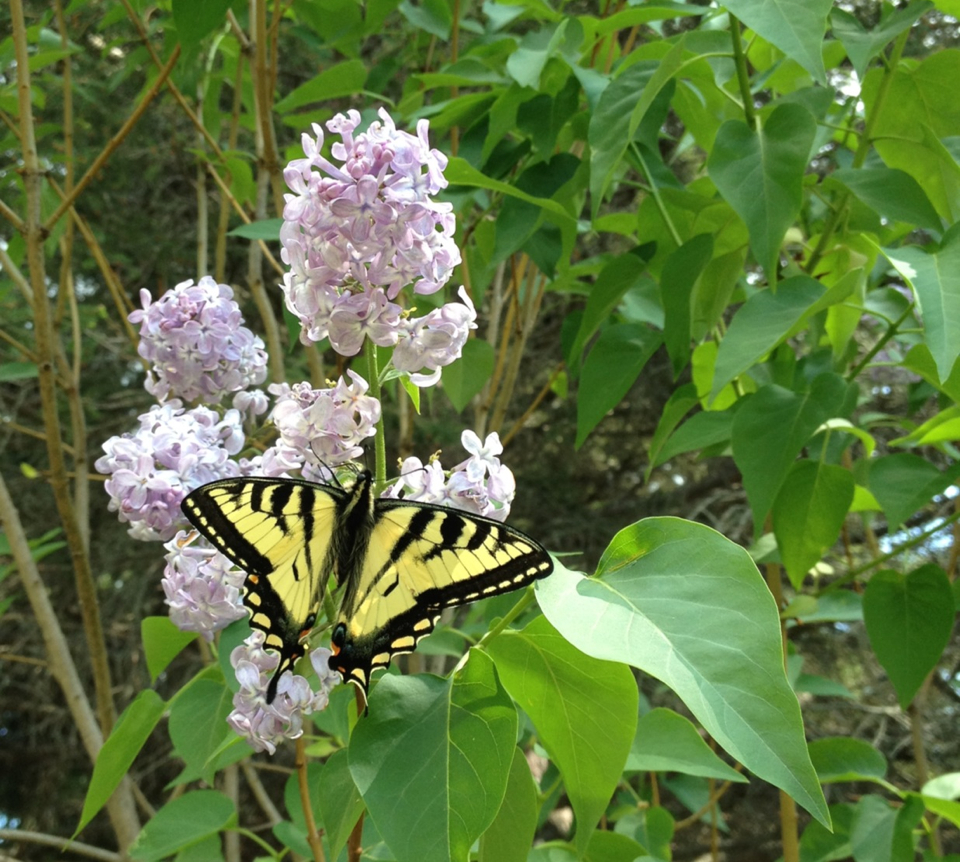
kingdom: Animalia
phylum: Arthropoda
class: Insecta
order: Lepidoptera
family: Papilionidae
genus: Papilio
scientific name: Papilio canadensis
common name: Canadian tiger swallowtail
